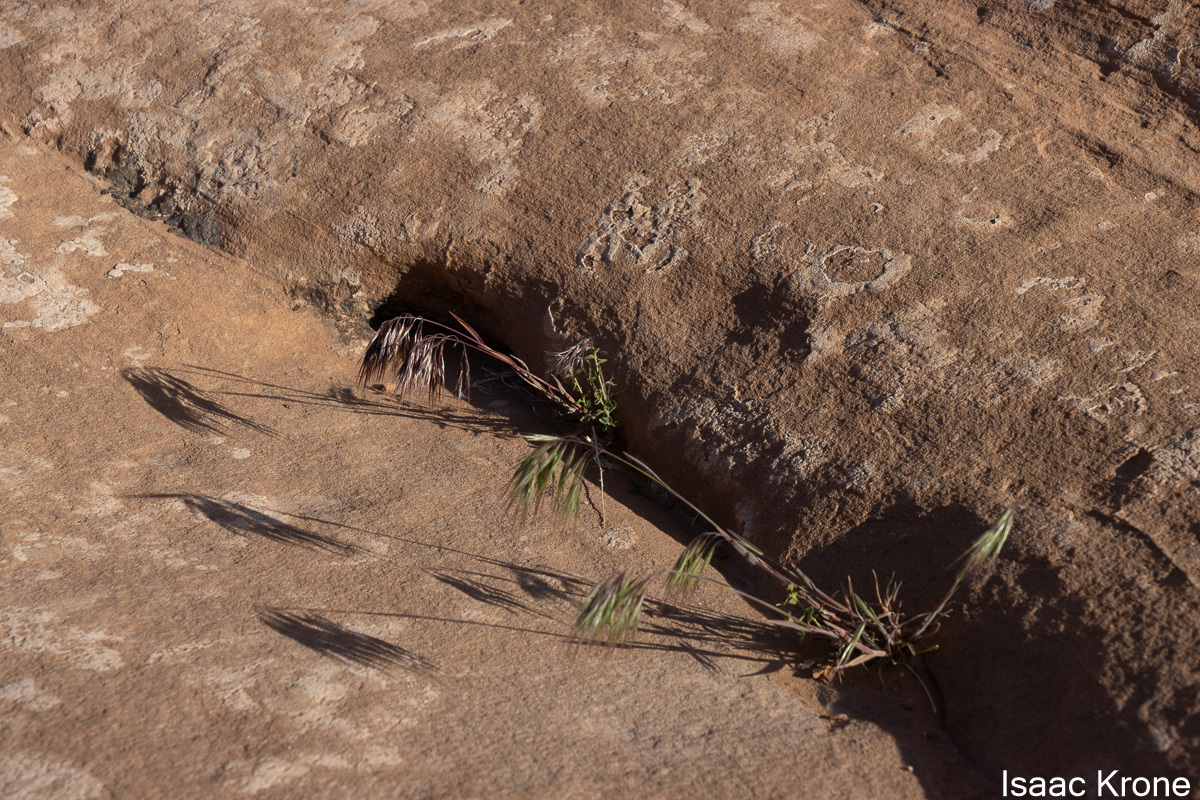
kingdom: Plantae
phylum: Tracheophyta
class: Liliopsida
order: Poales
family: Poaceae
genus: Bromus
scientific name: Bromus tectorum
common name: Cheatgrass
